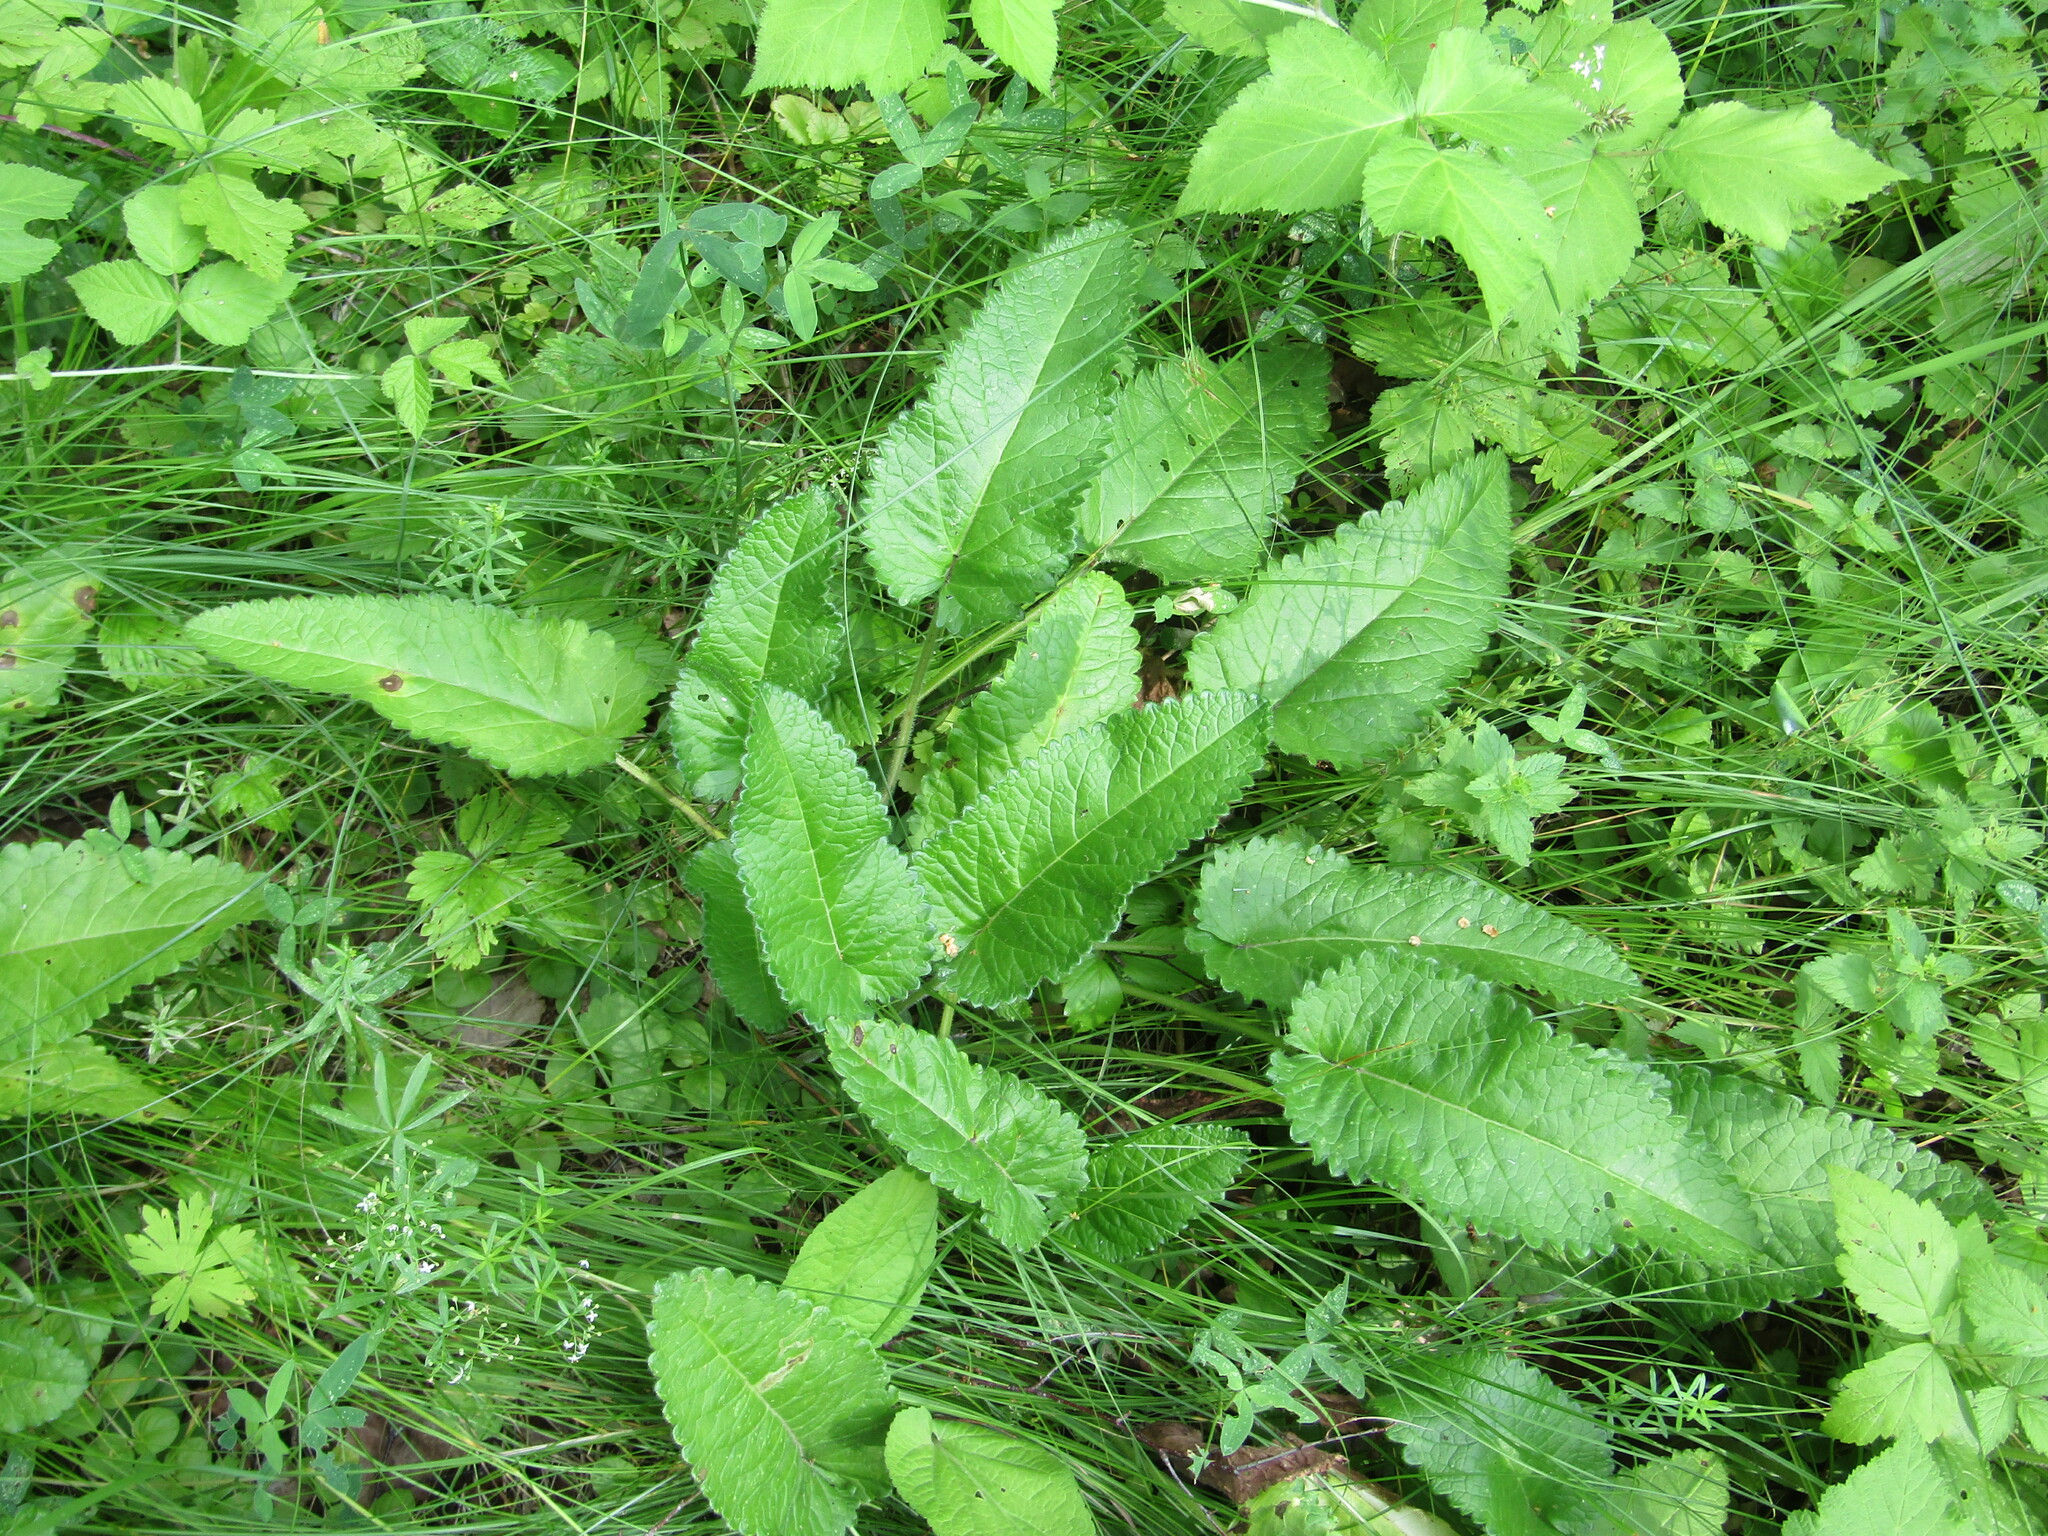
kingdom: Plantae
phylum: Tracheophyta
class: Magnoliopsida
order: Lamiales
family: Lamiaceae
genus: Betonica
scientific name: Betonica officinalis
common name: Bishop's-wort
